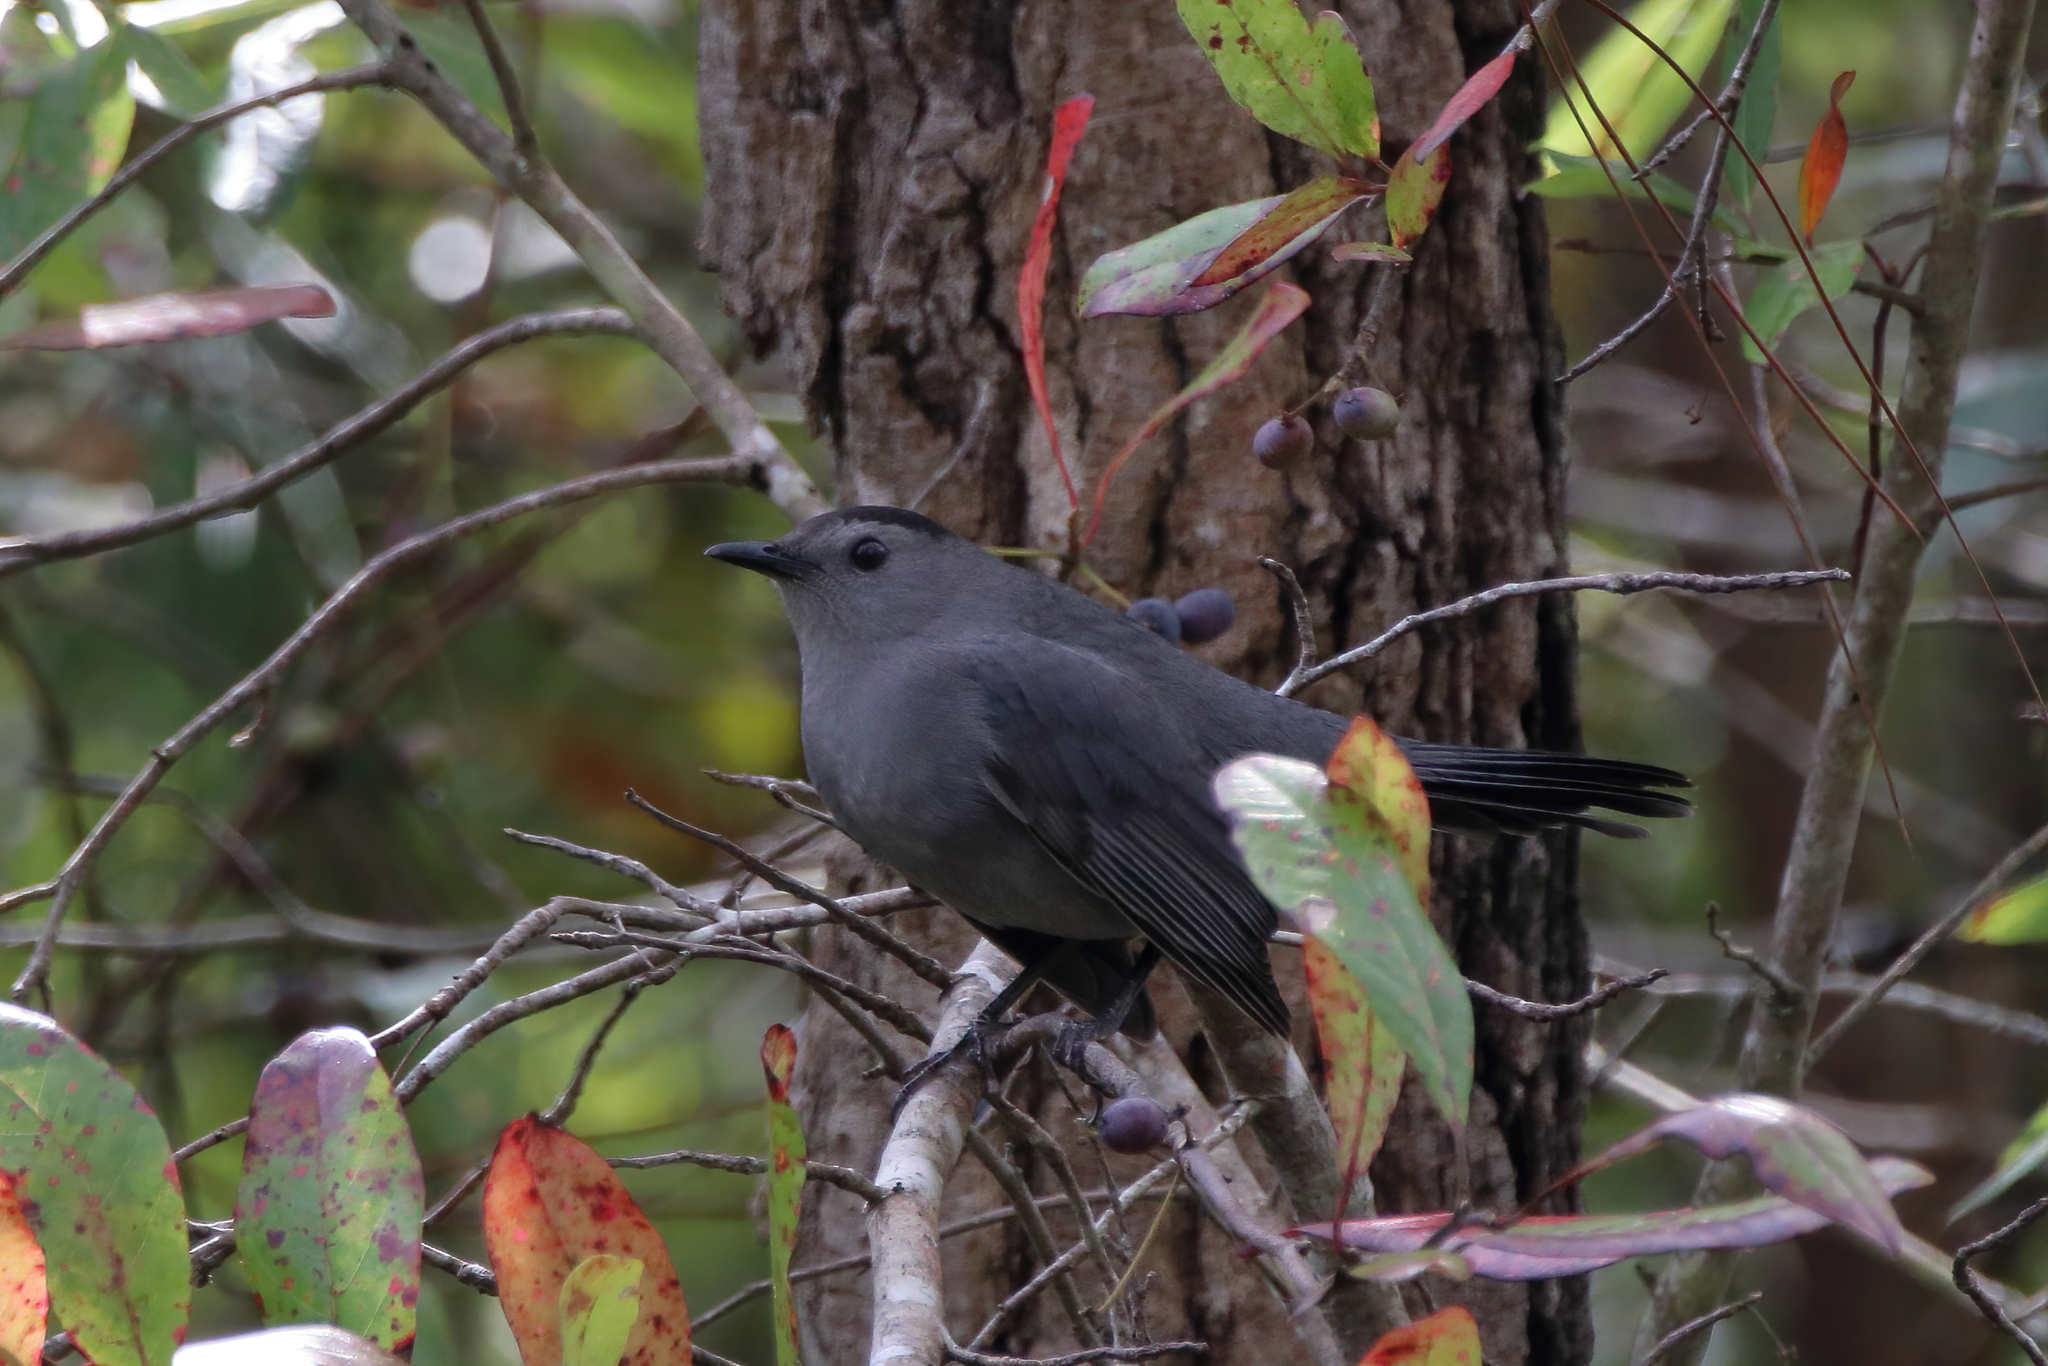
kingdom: Animalia
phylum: Chordata
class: Aves
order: Passeriformes
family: Mimidae
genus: Dumetella
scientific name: Dumetella carolinensis
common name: Gray catbird
